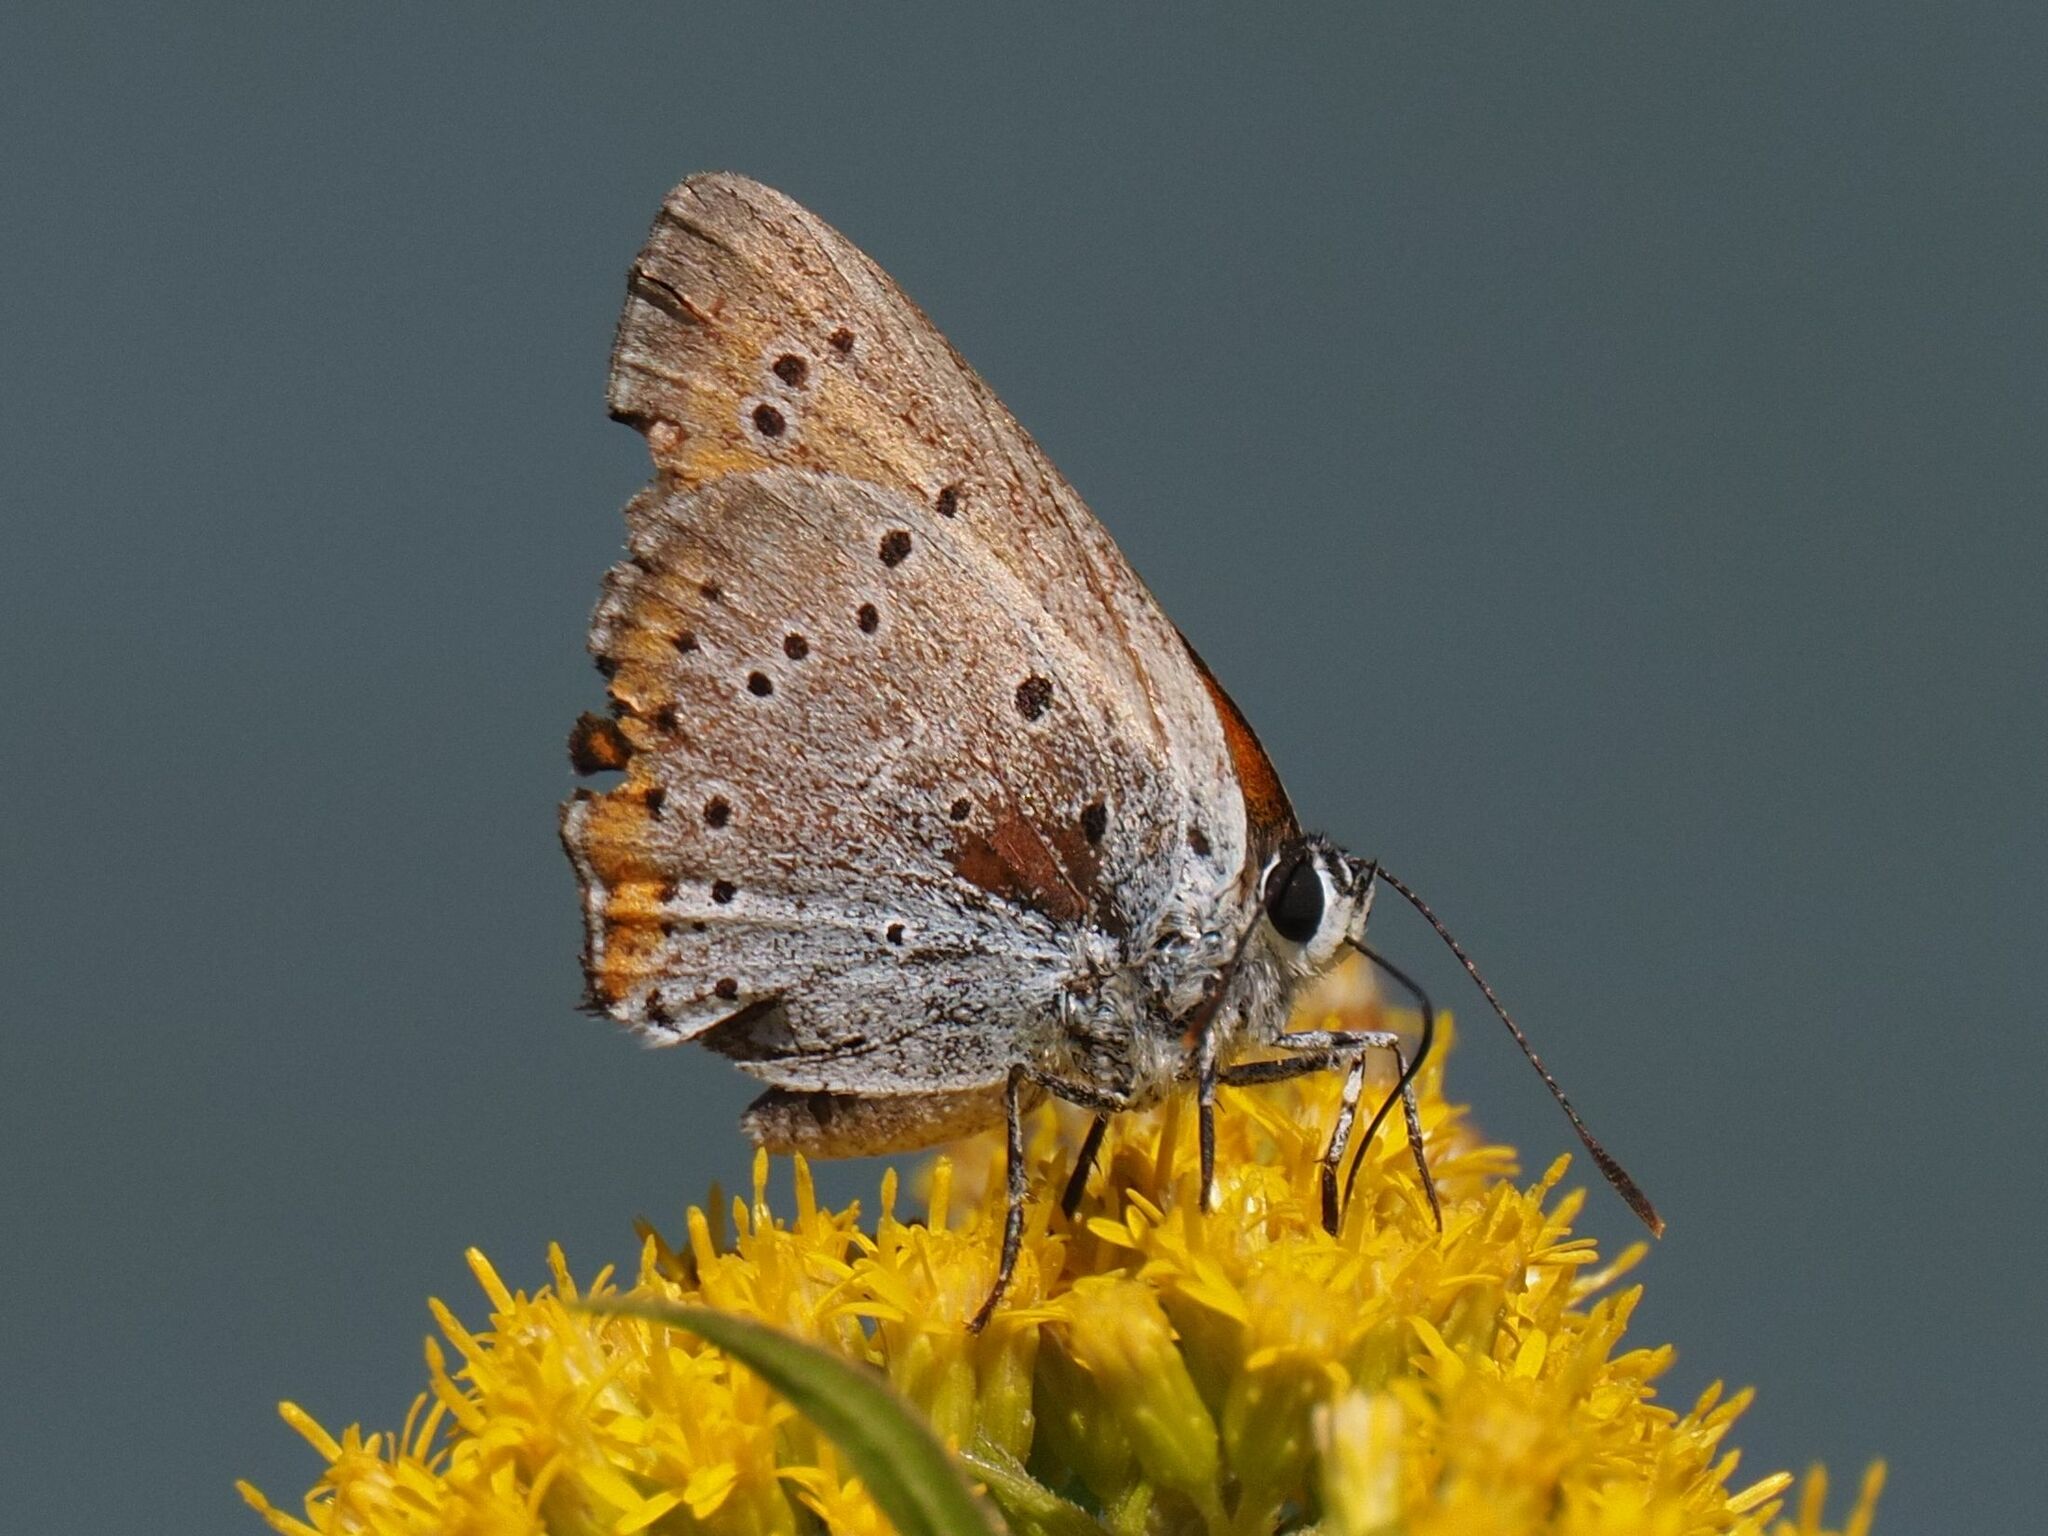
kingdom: Animalia
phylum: Arthropoda
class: Insecta
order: Lepidoptera
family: Lycaenidae
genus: Lycaena
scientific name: Lycaena dispar
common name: Large copper
